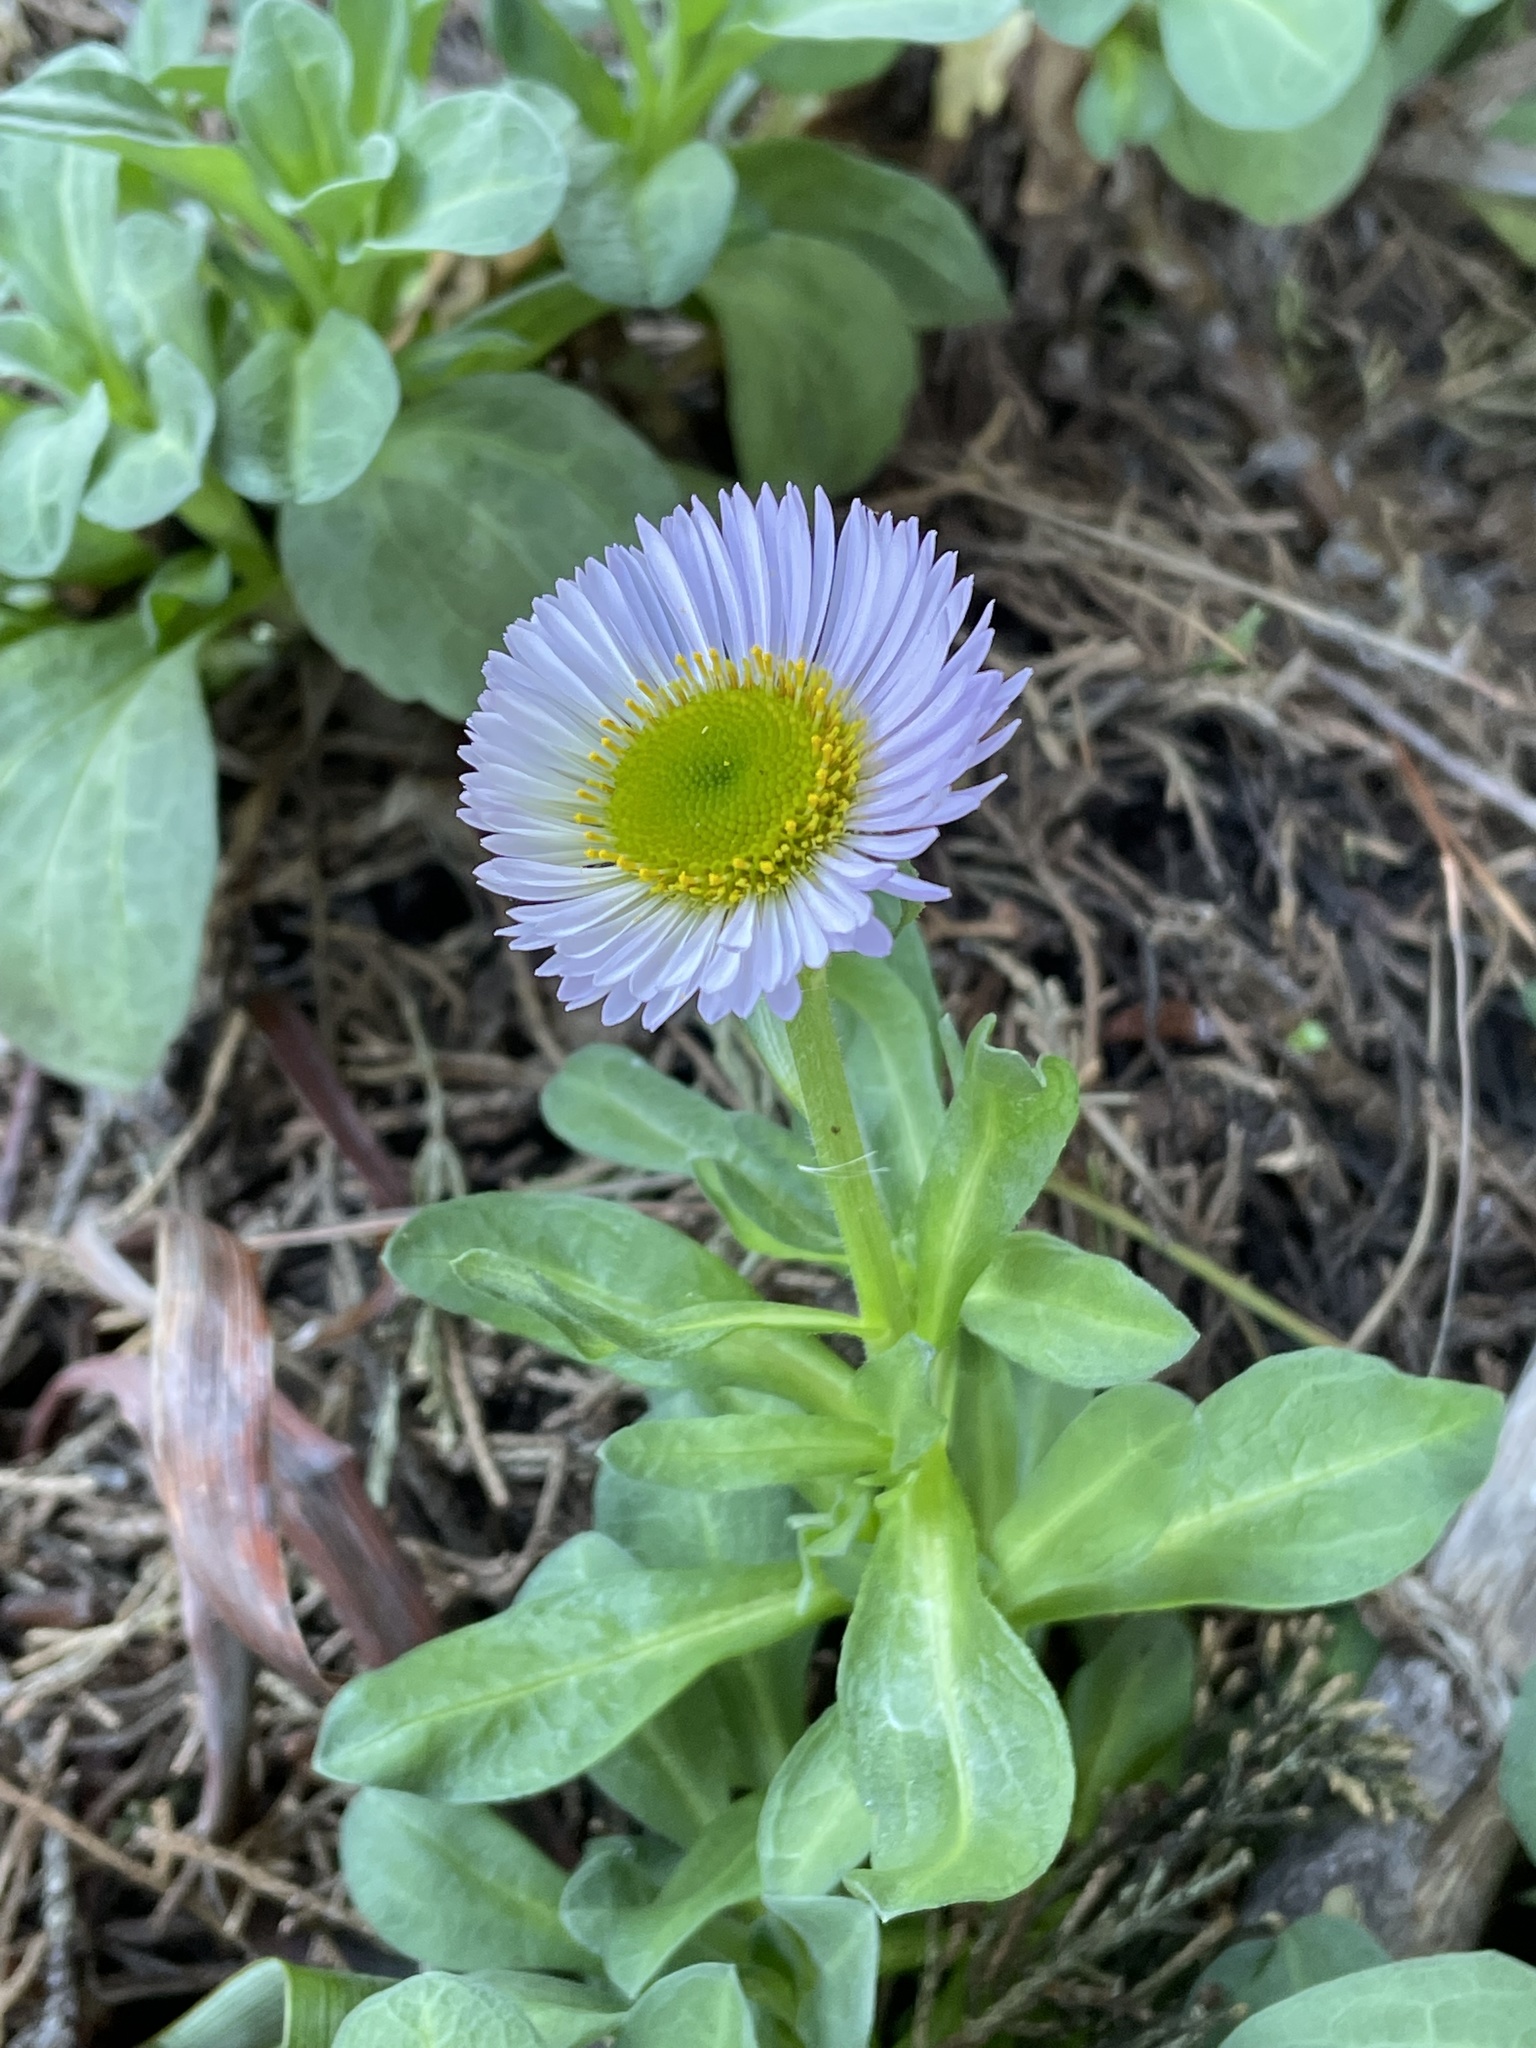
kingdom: Plantae
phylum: Tracheophyta
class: Magnoliopsida
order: Asterales
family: Asteraceae
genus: Erigeron
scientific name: Erigeron glaucus
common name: Seaside daisy
